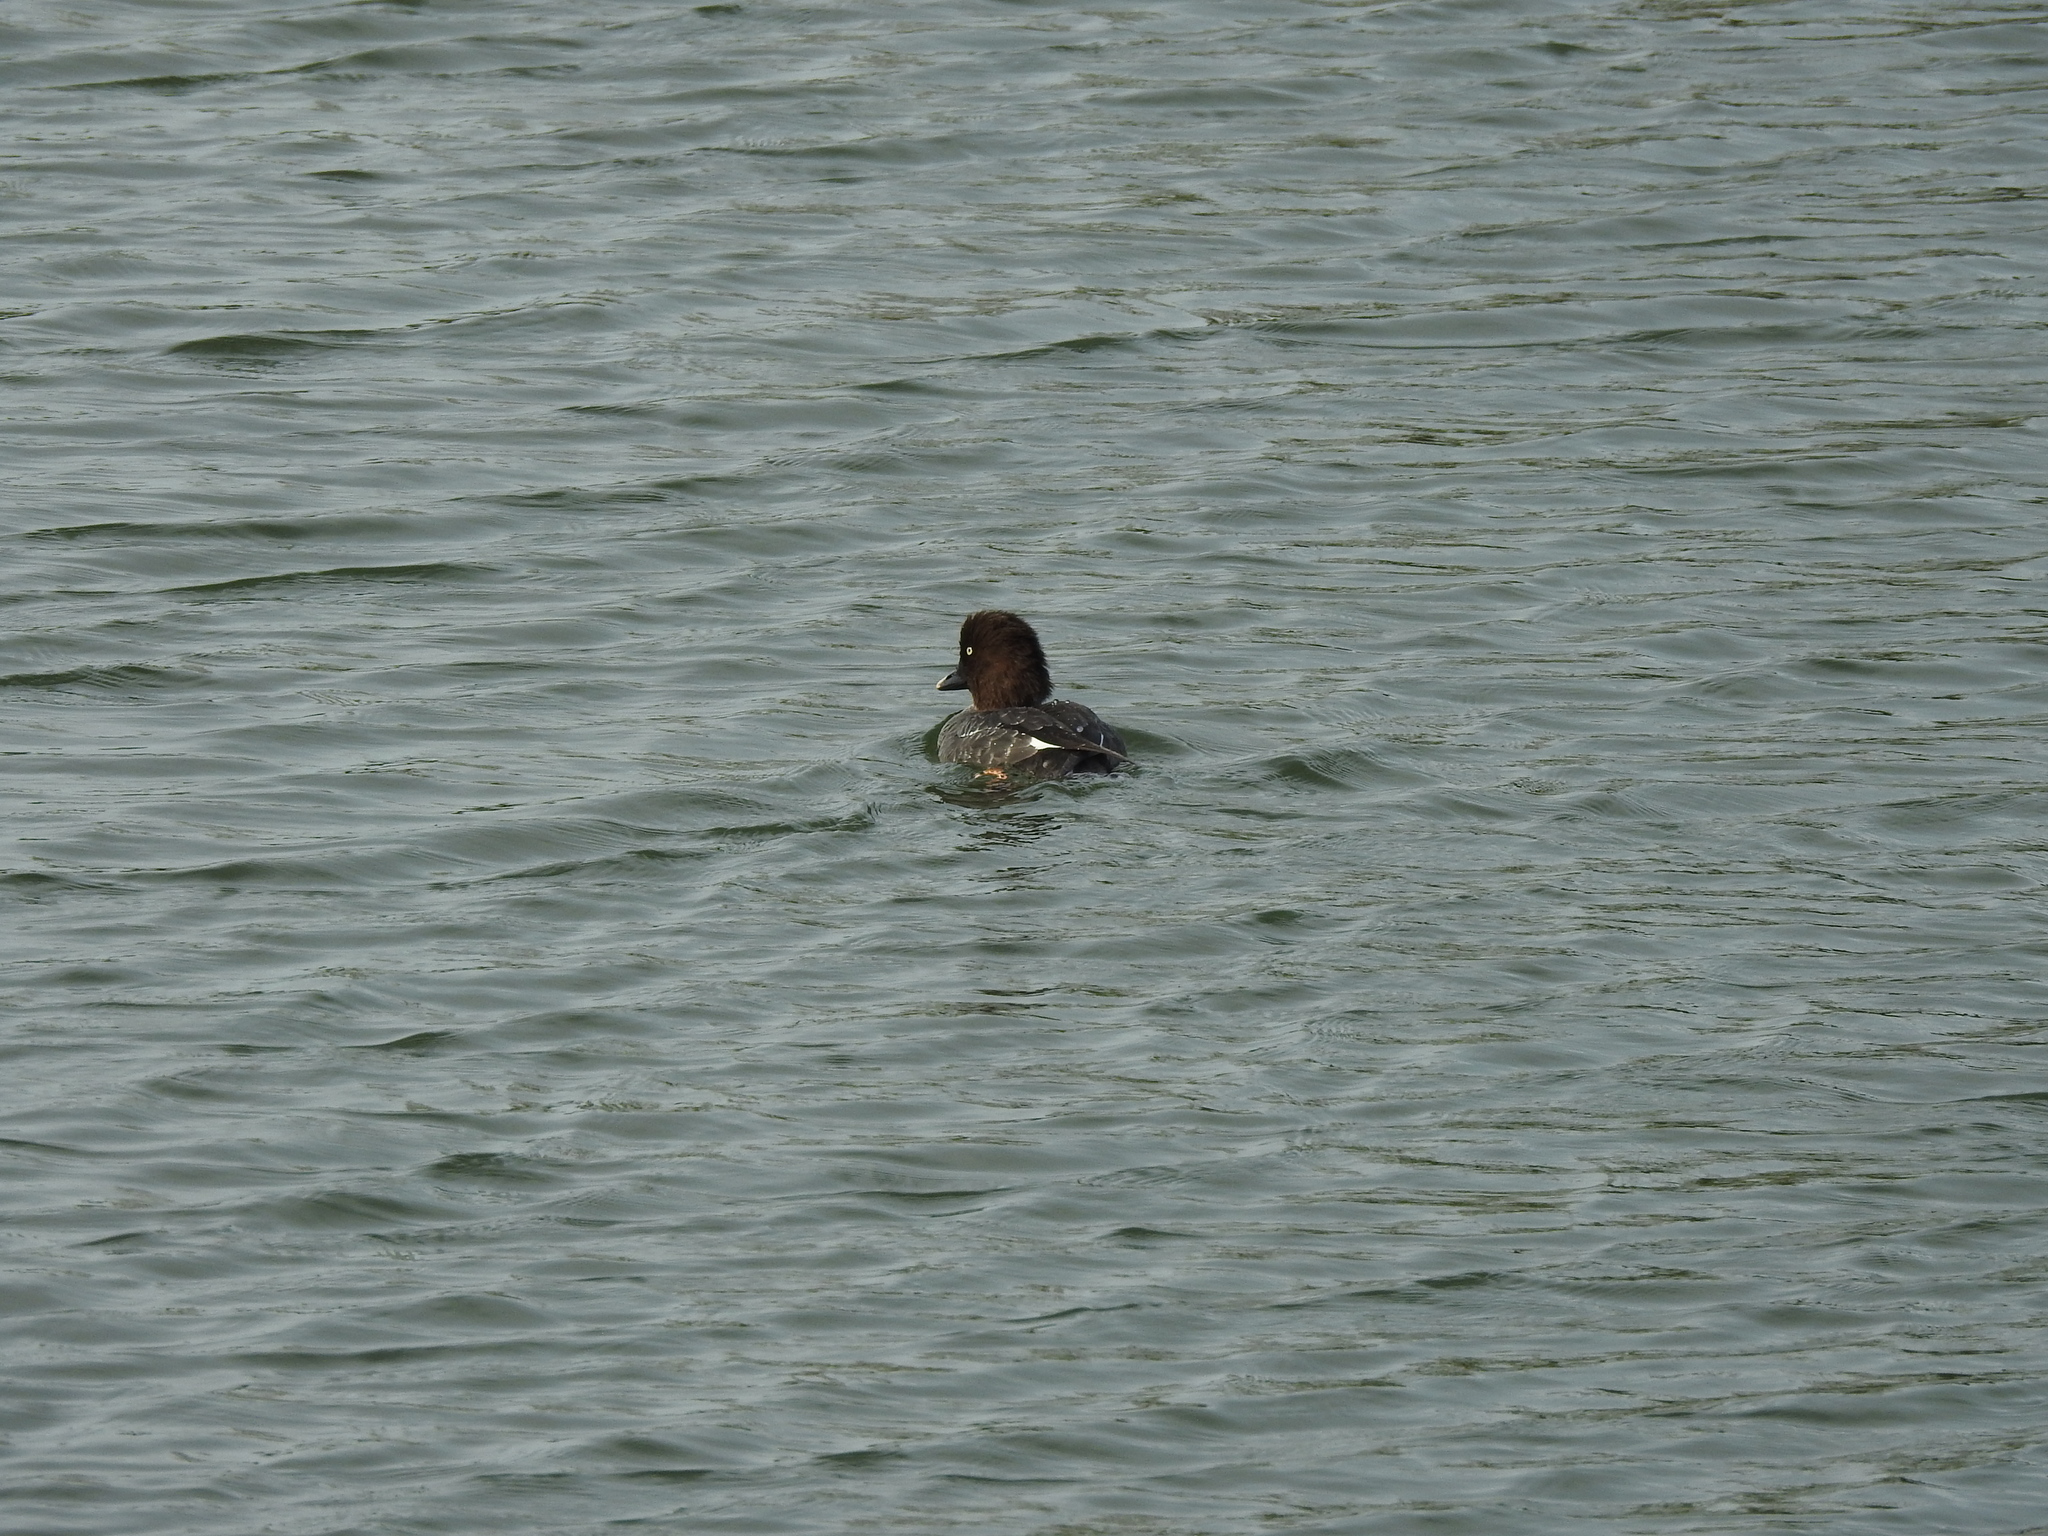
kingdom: Animalia
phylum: Chordata
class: Aves
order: Anseriformes
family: Anatidae
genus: Bucephala
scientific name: Bucephala clangula
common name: Common goldeneye
